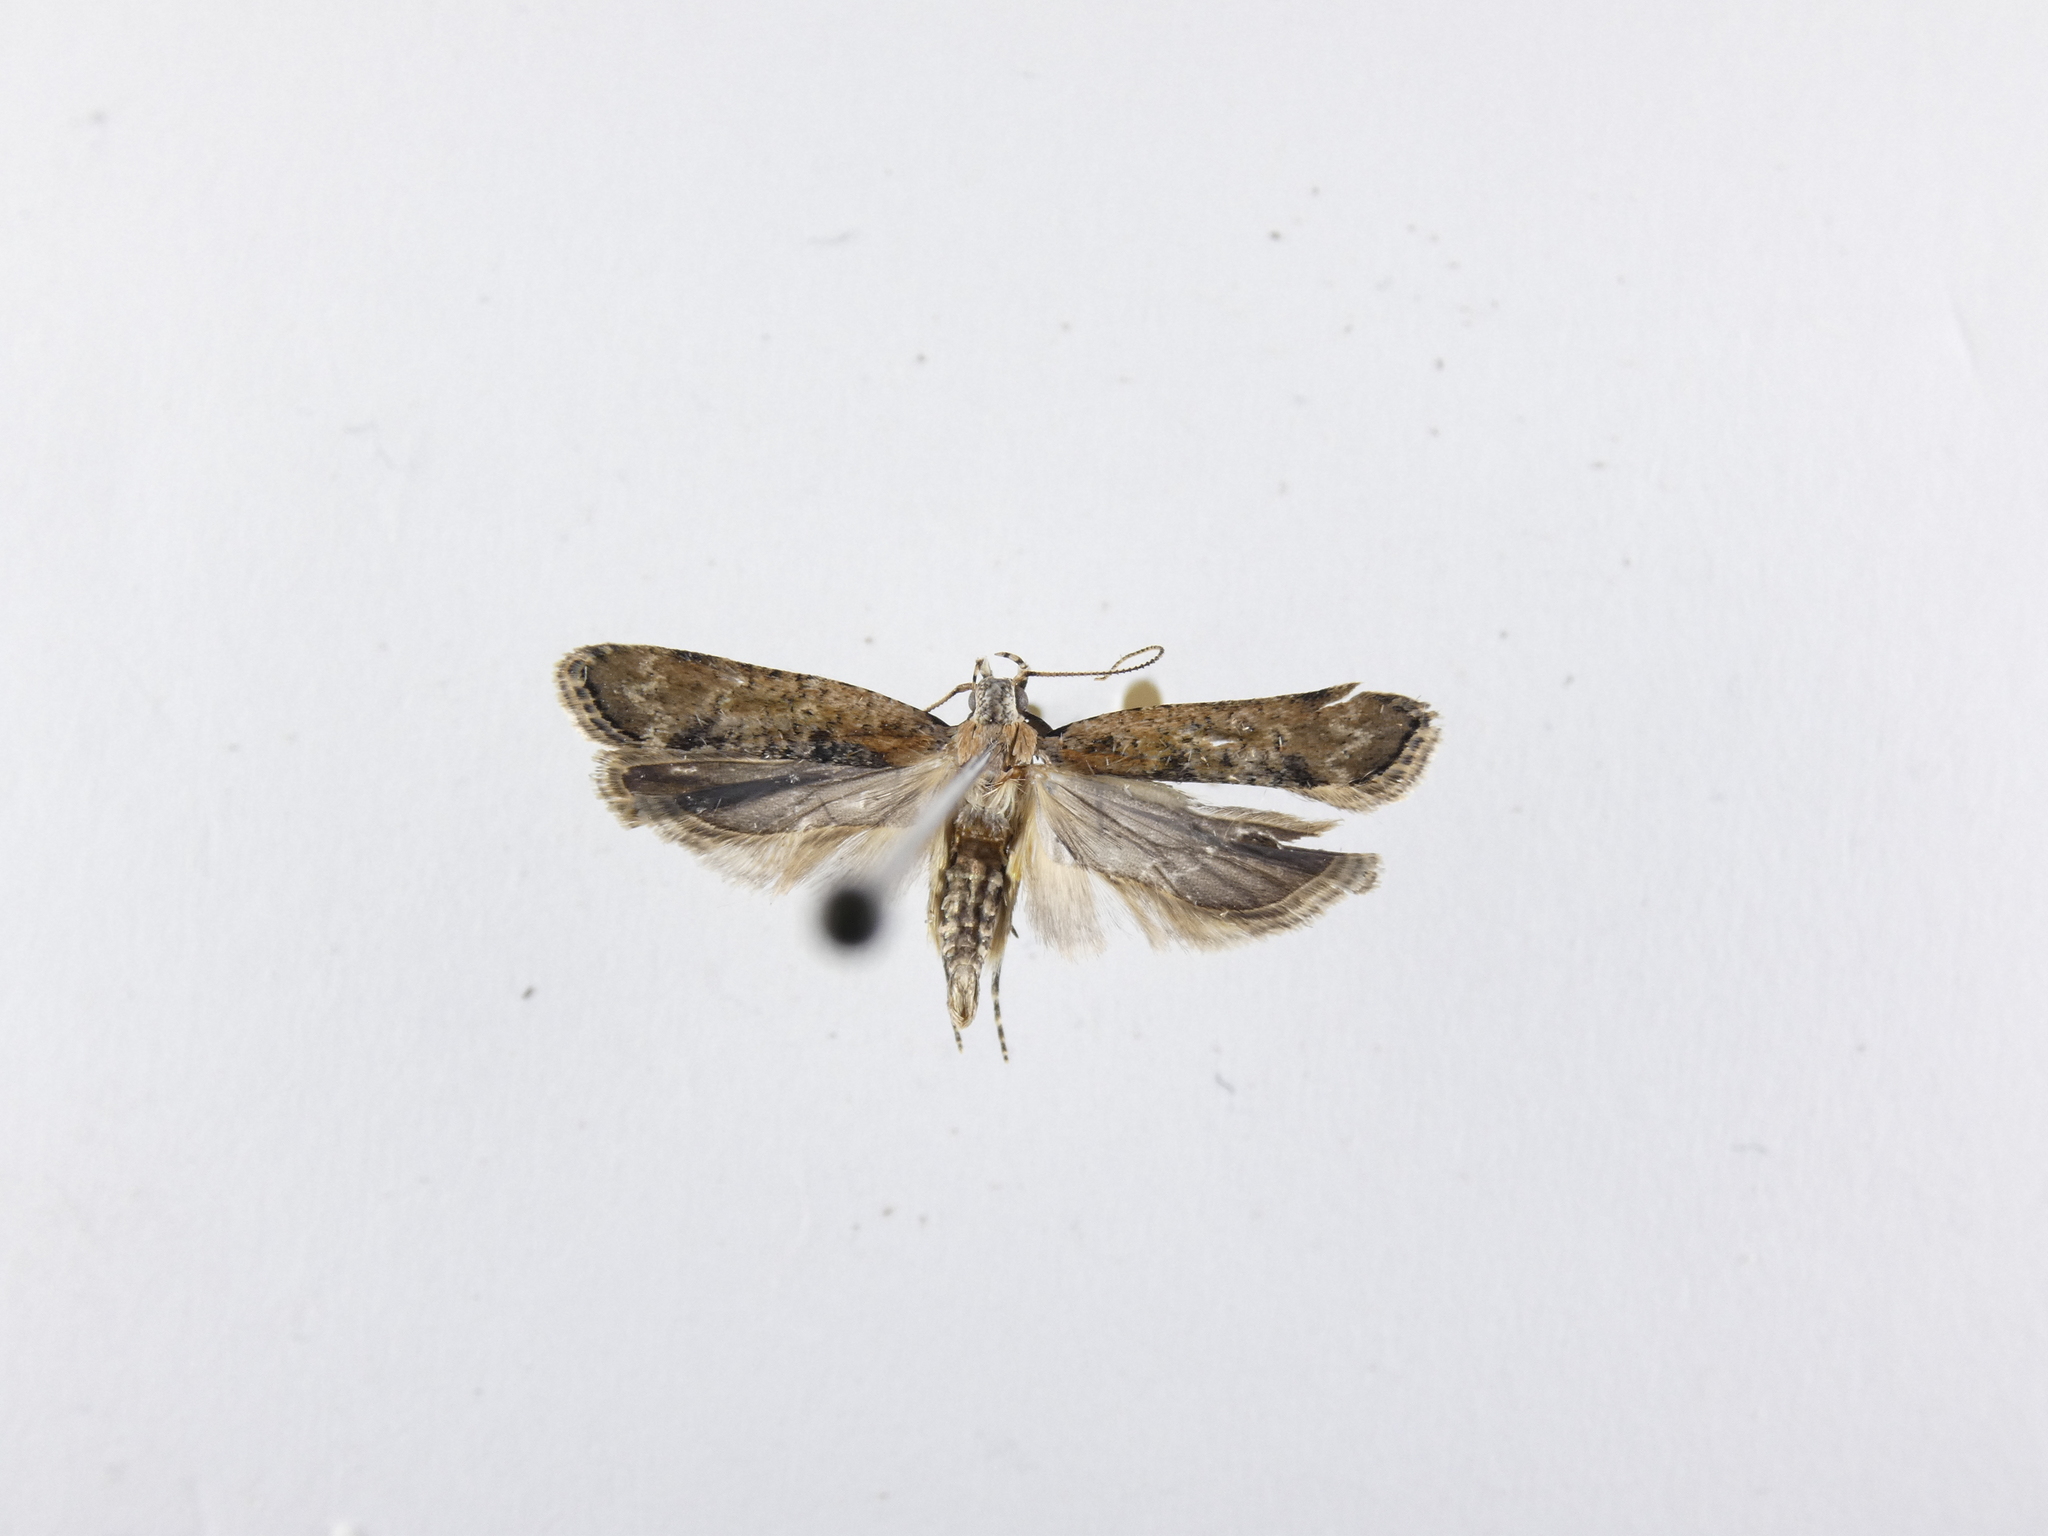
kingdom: Animalia
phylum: Arthropoda
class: Insecta
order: Lepidoptera
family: Gelechiidae
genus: Anisoplaca
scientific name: Anisoplaca achyrota
